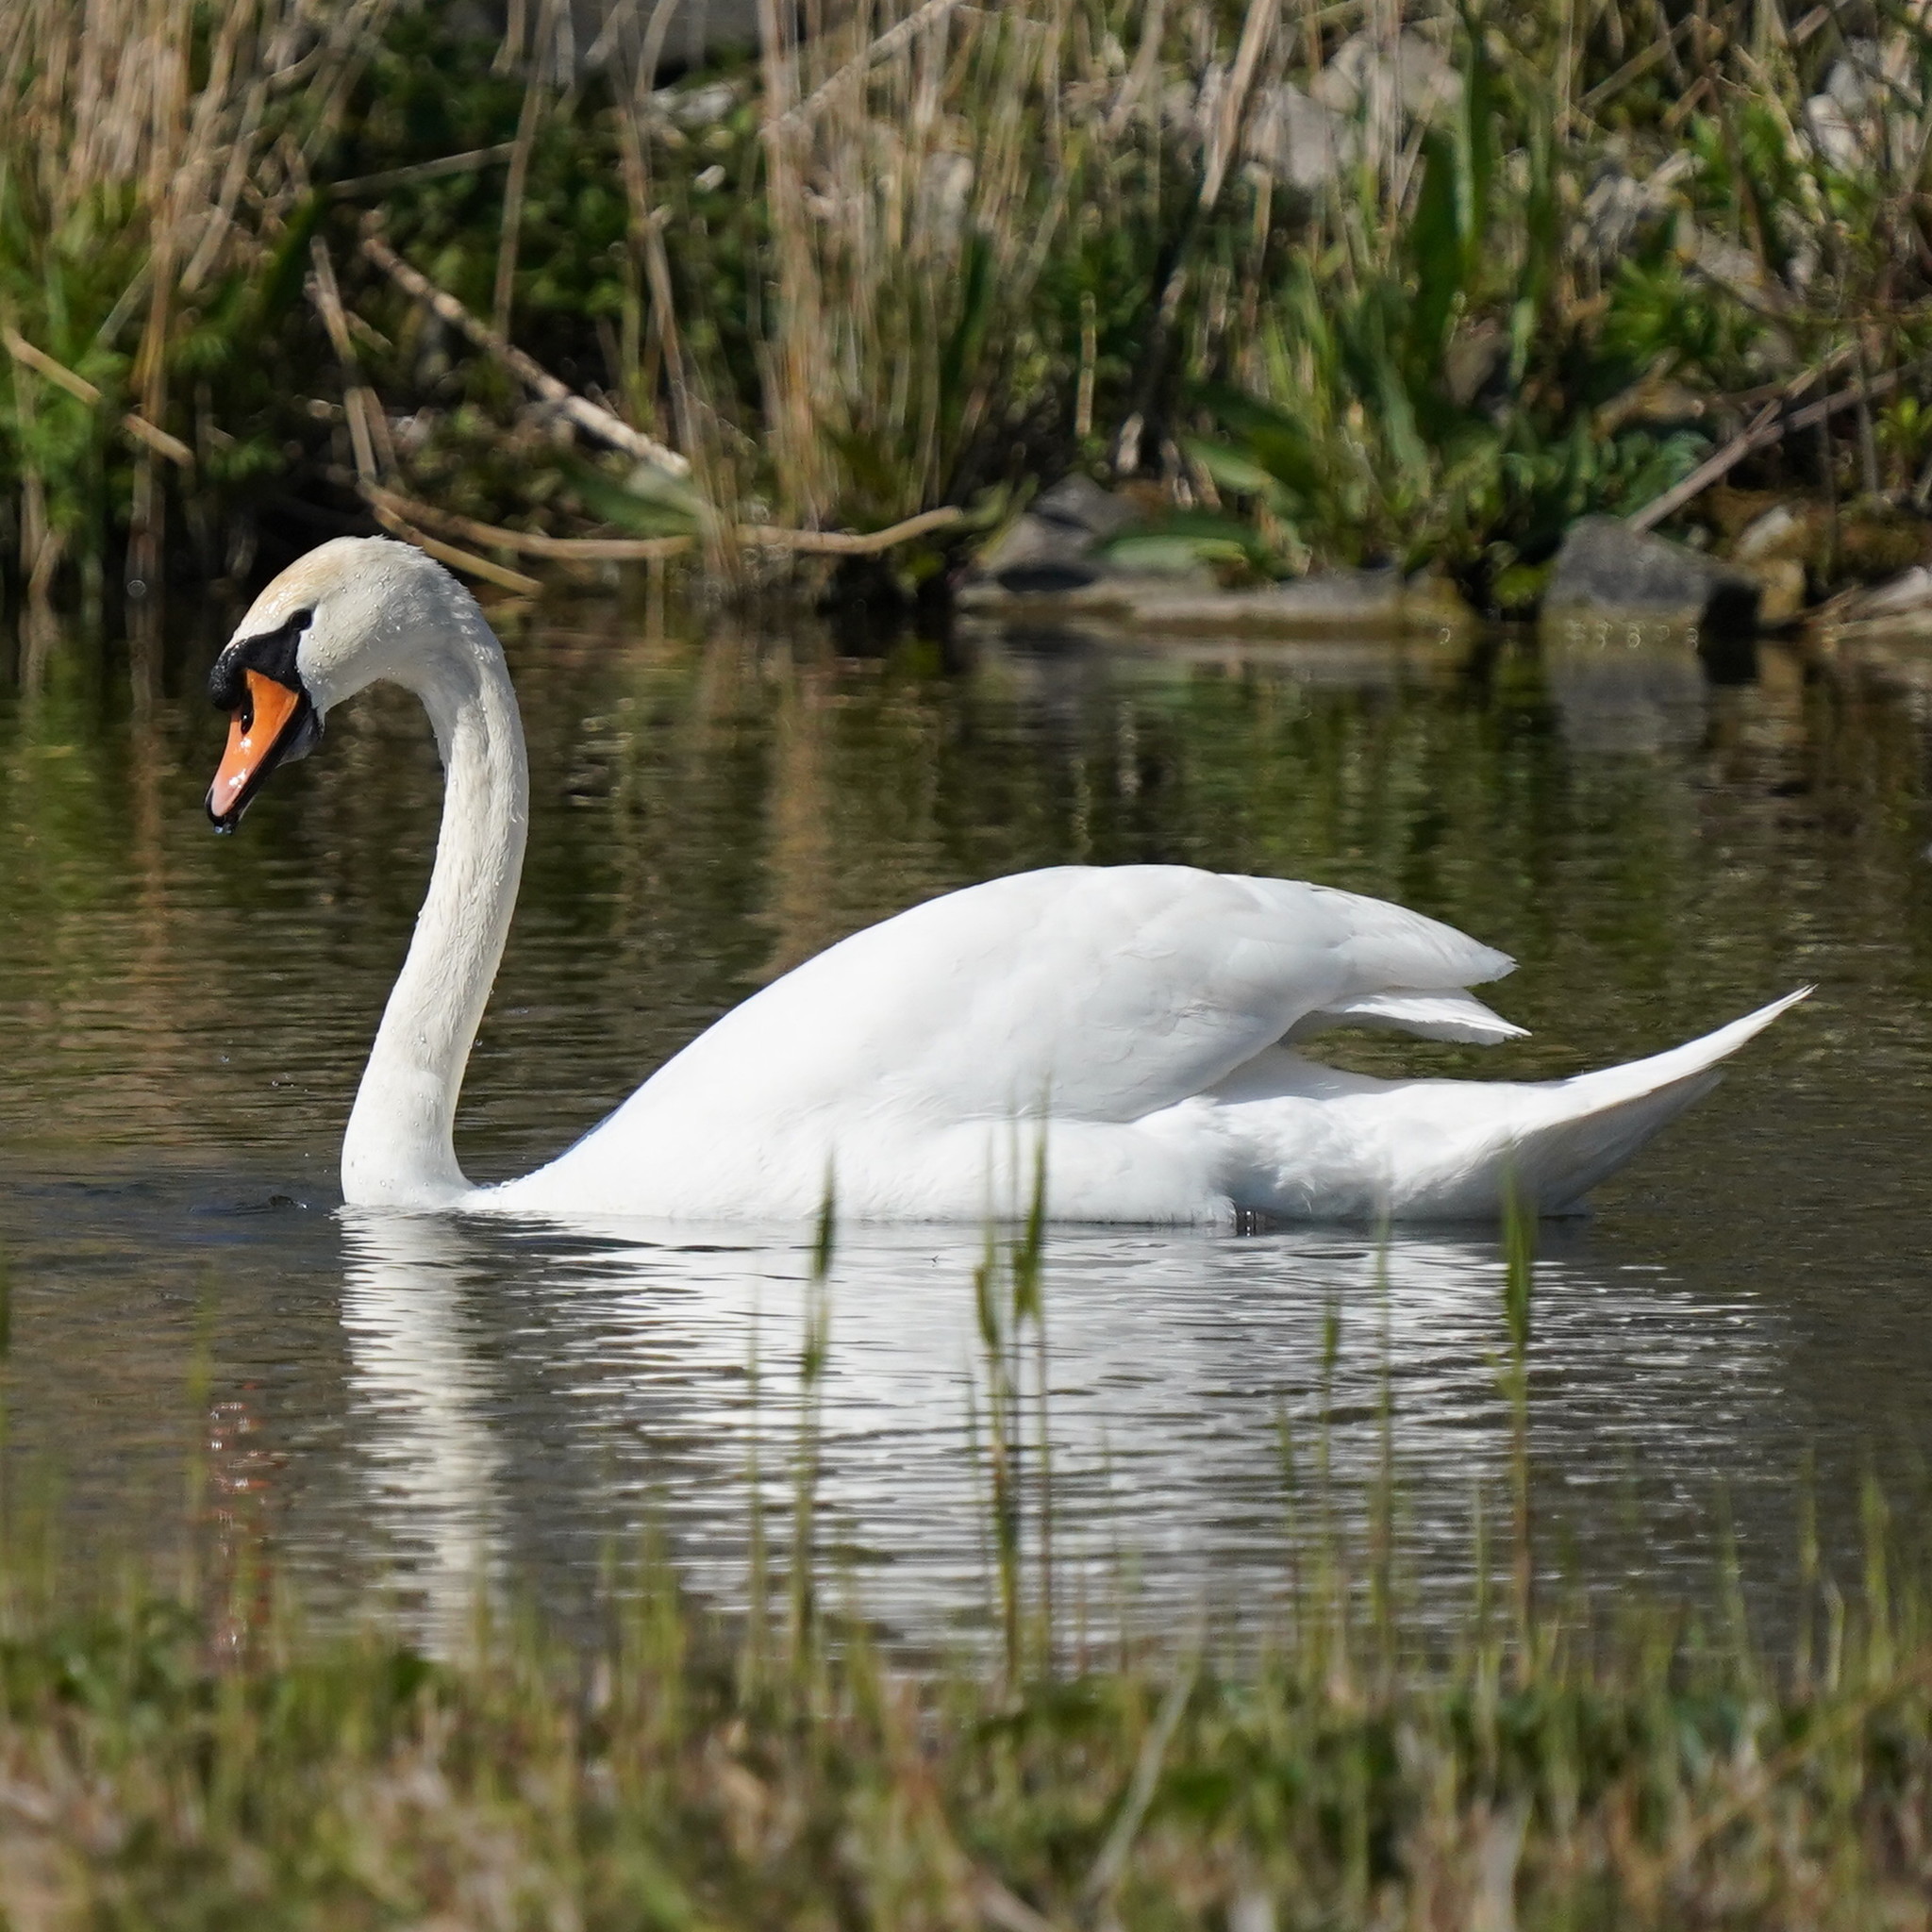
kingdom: Animalia
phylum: Chordata
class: Aves
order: Anseriformes
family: Anatidae
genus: Cygnus
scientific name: Cygnus olor
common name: Mute swan
